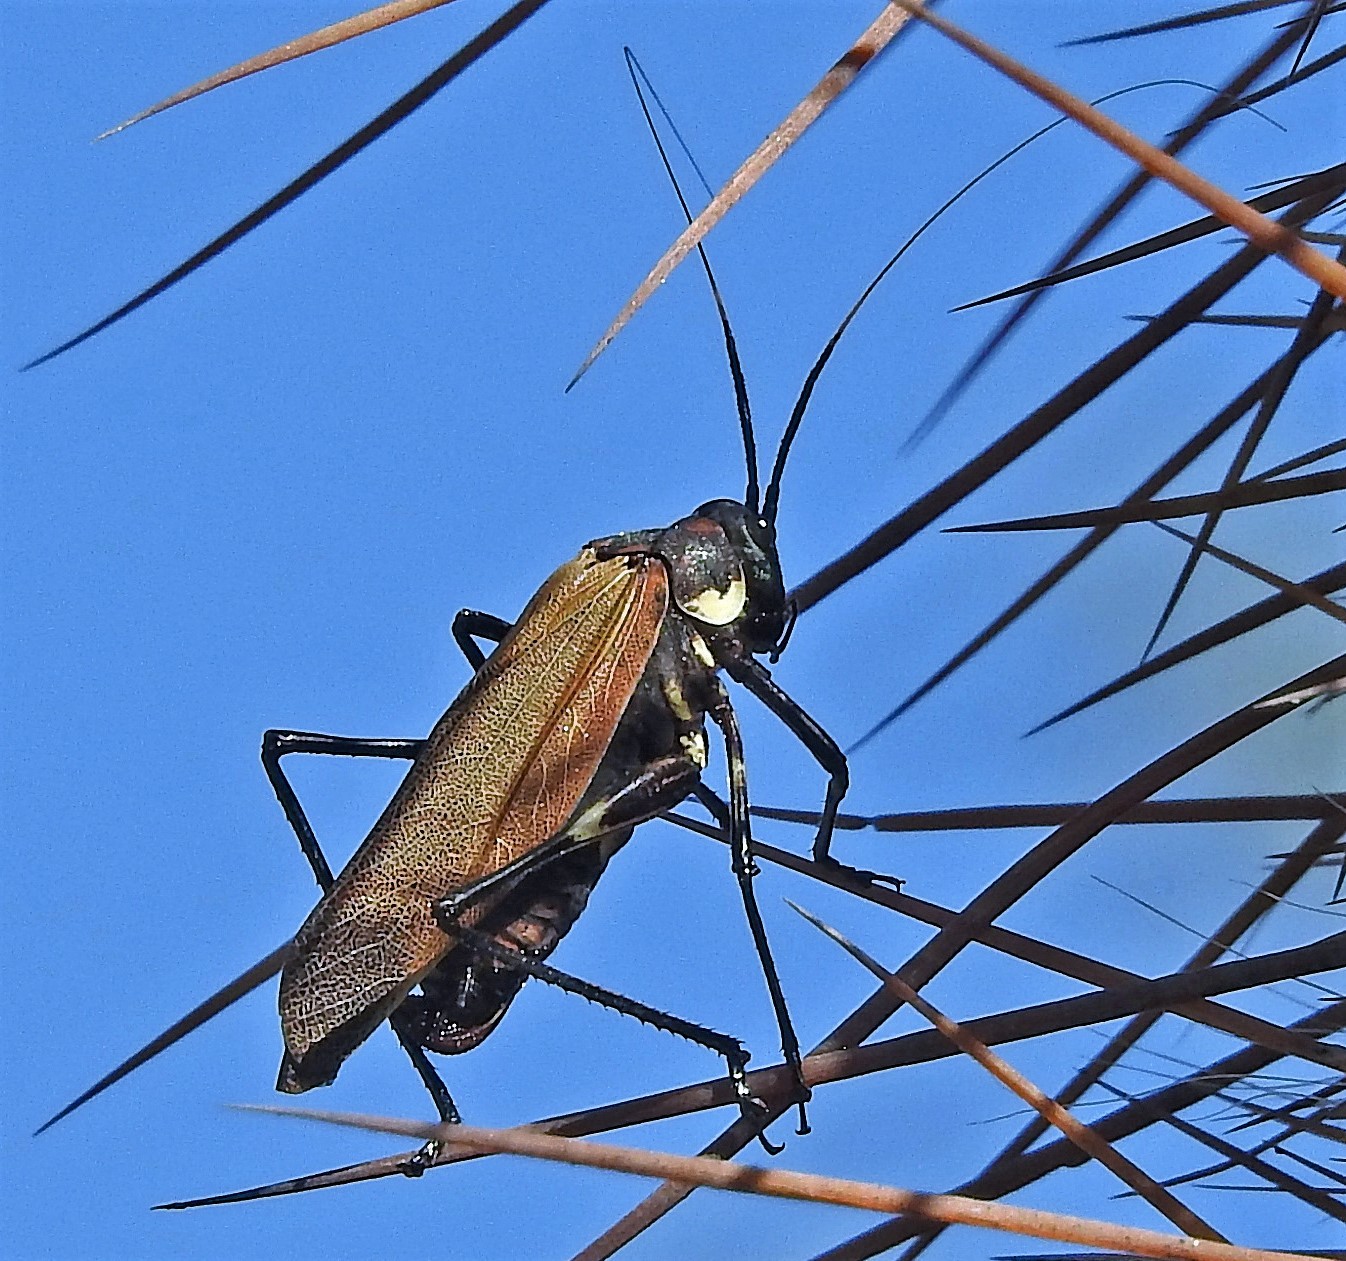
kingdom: Animalia
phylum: Arthropoda
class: Insecta
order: Orthoptera
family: Tettigoniidae
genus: Scaphura
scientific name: Scaphura elegans
